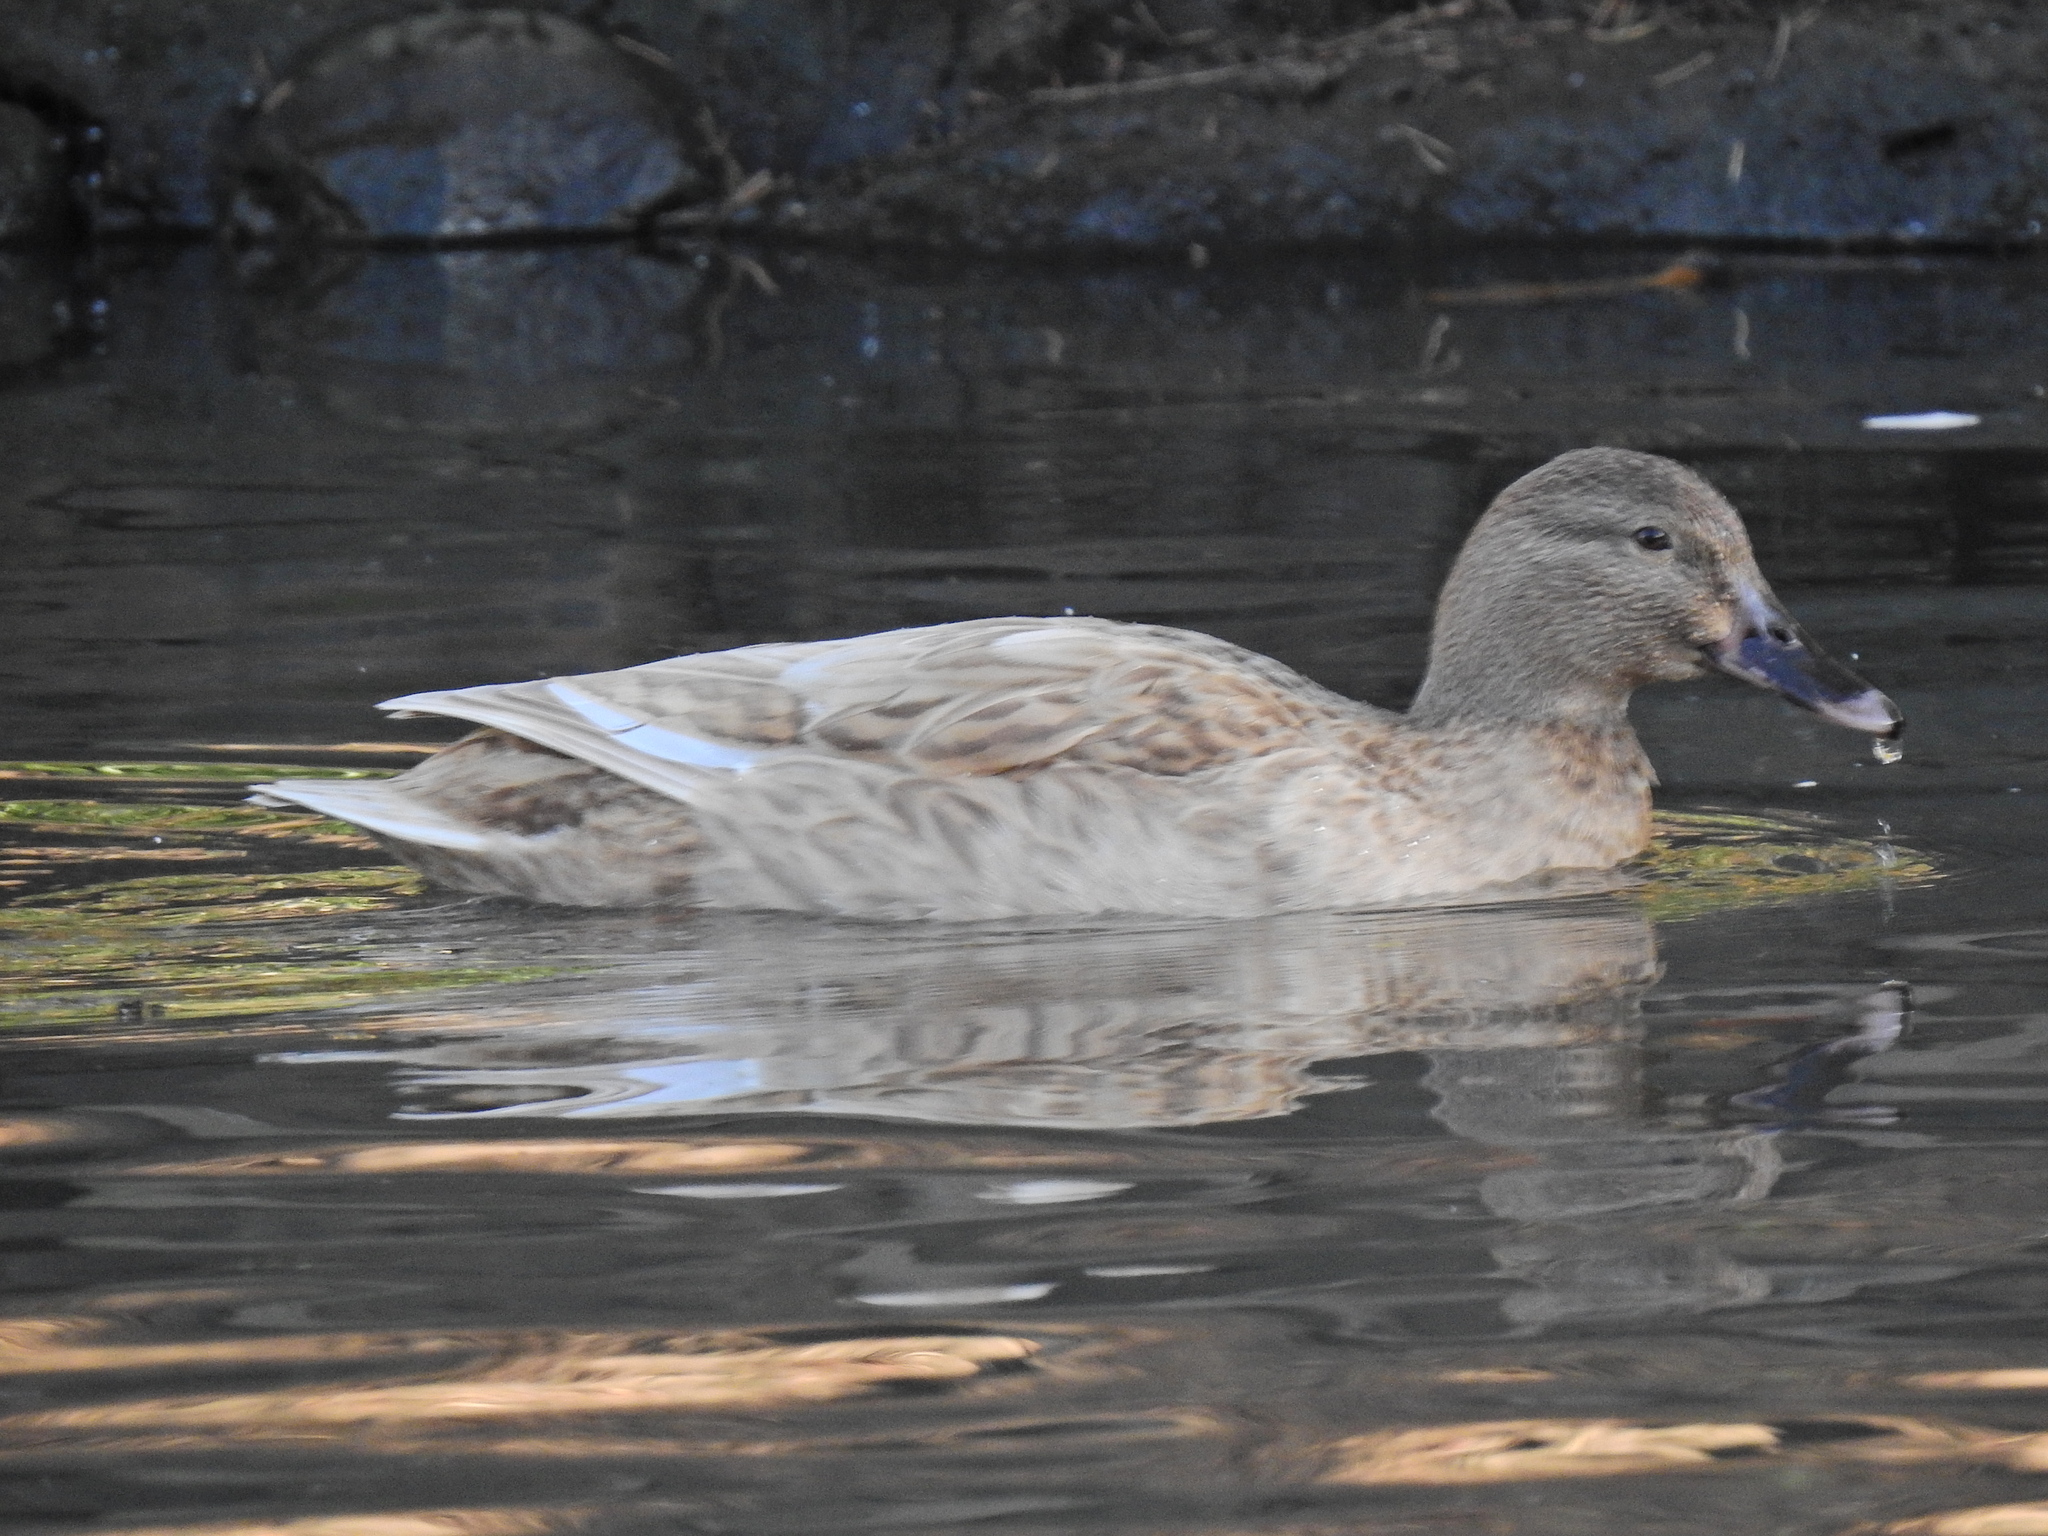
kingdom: Animalia
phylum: Chordata
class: Aves
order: Anseriformes
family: Anatidae
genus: Anas
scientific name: Anas platyrhynchos
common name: Mallard
